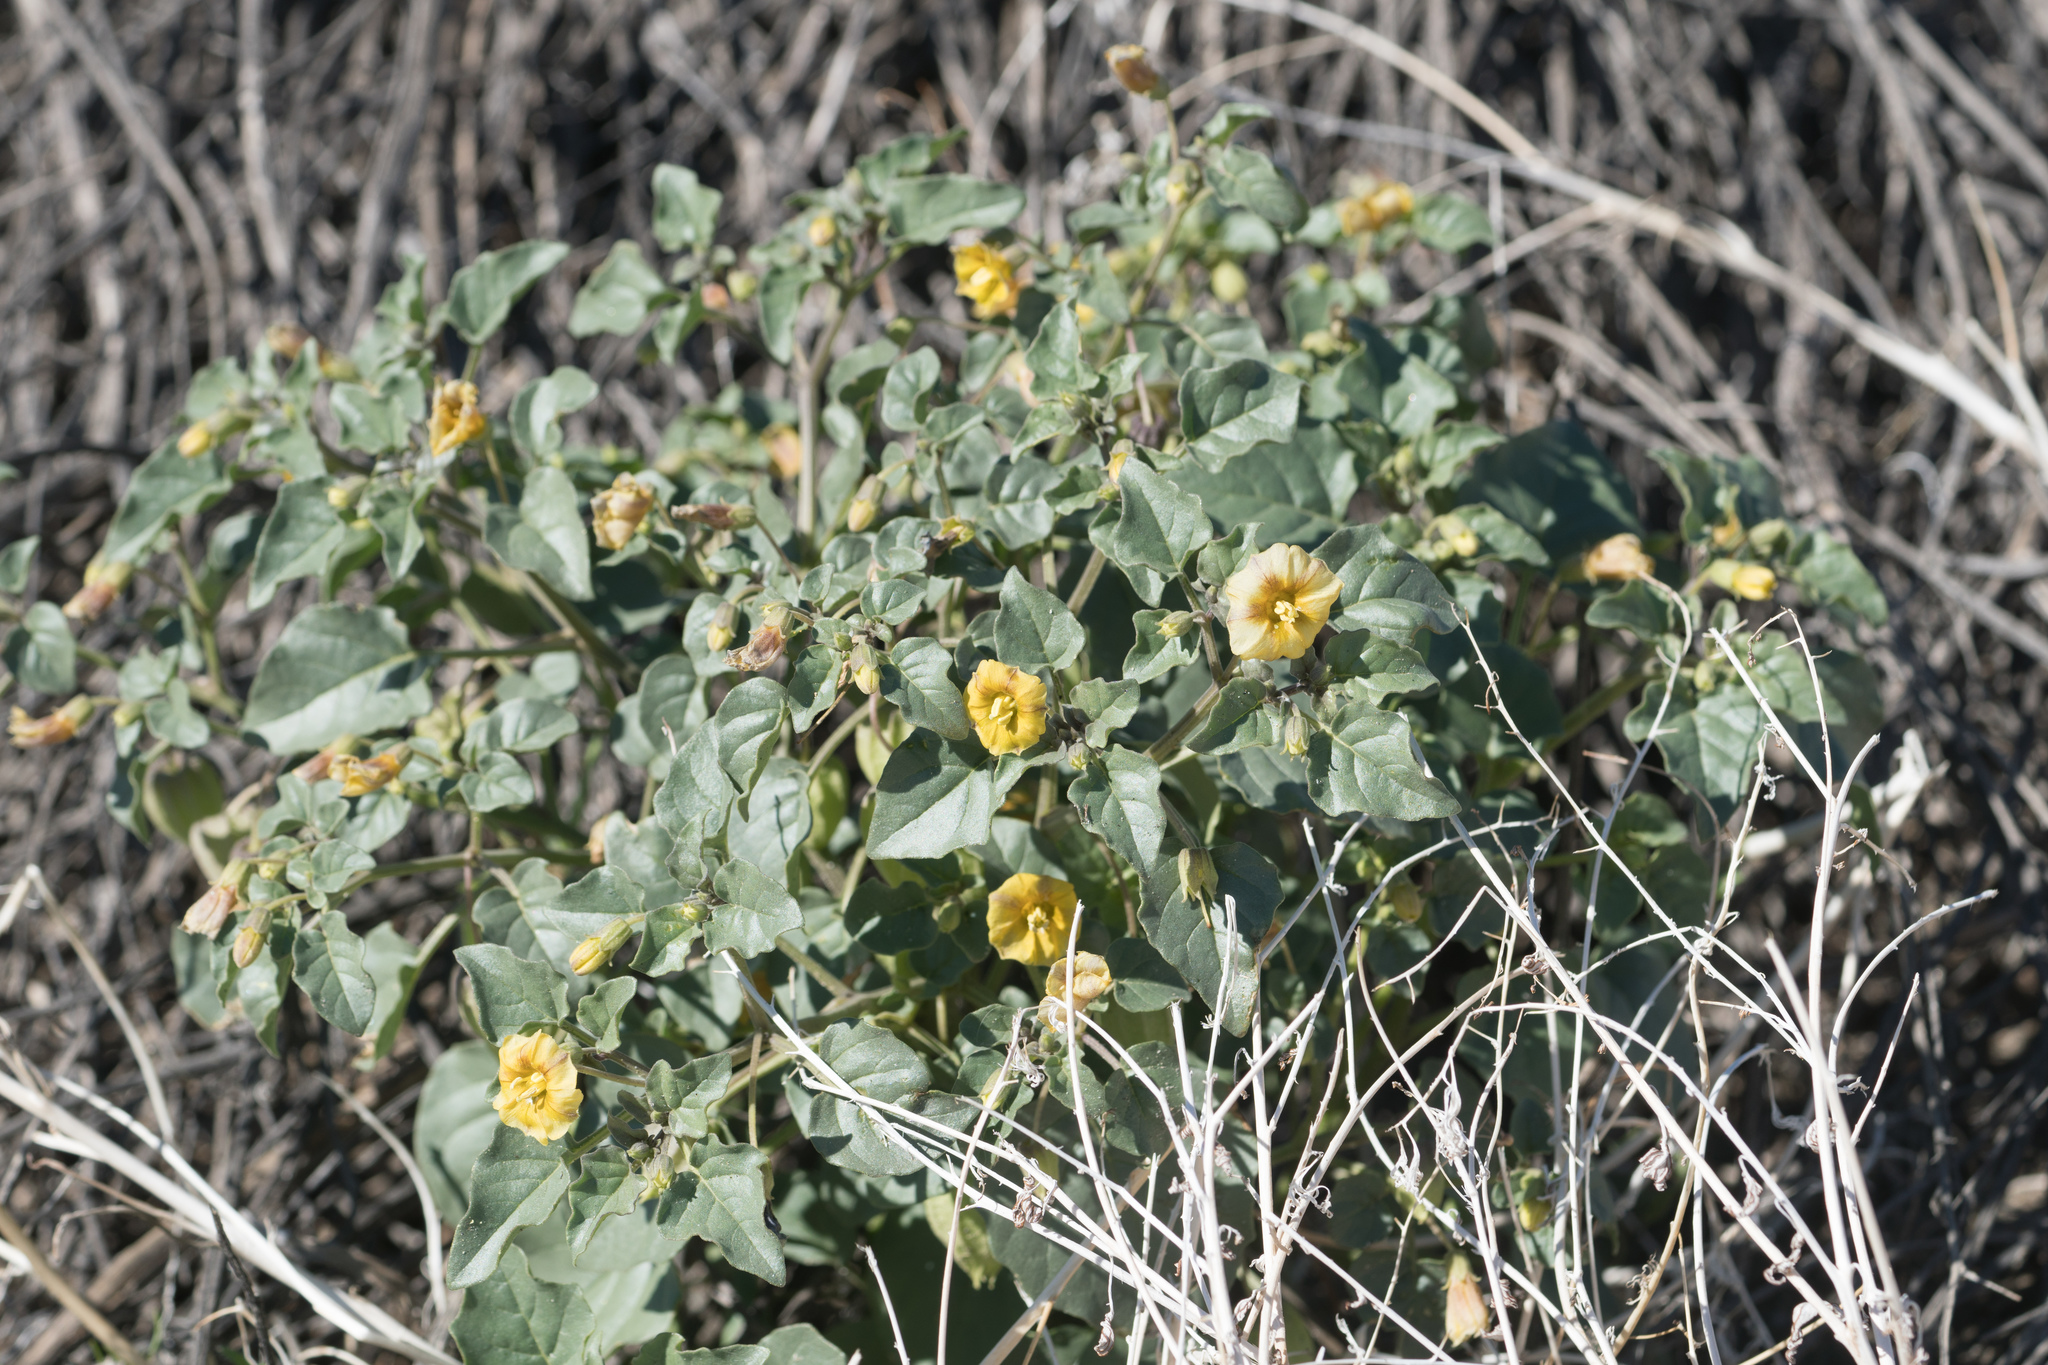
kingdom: Plantae
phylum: Tracheophyta
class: Magnoliopsida
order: Solanales
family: Solanaceae
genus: Physalis
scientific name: Physalis crassifolia
